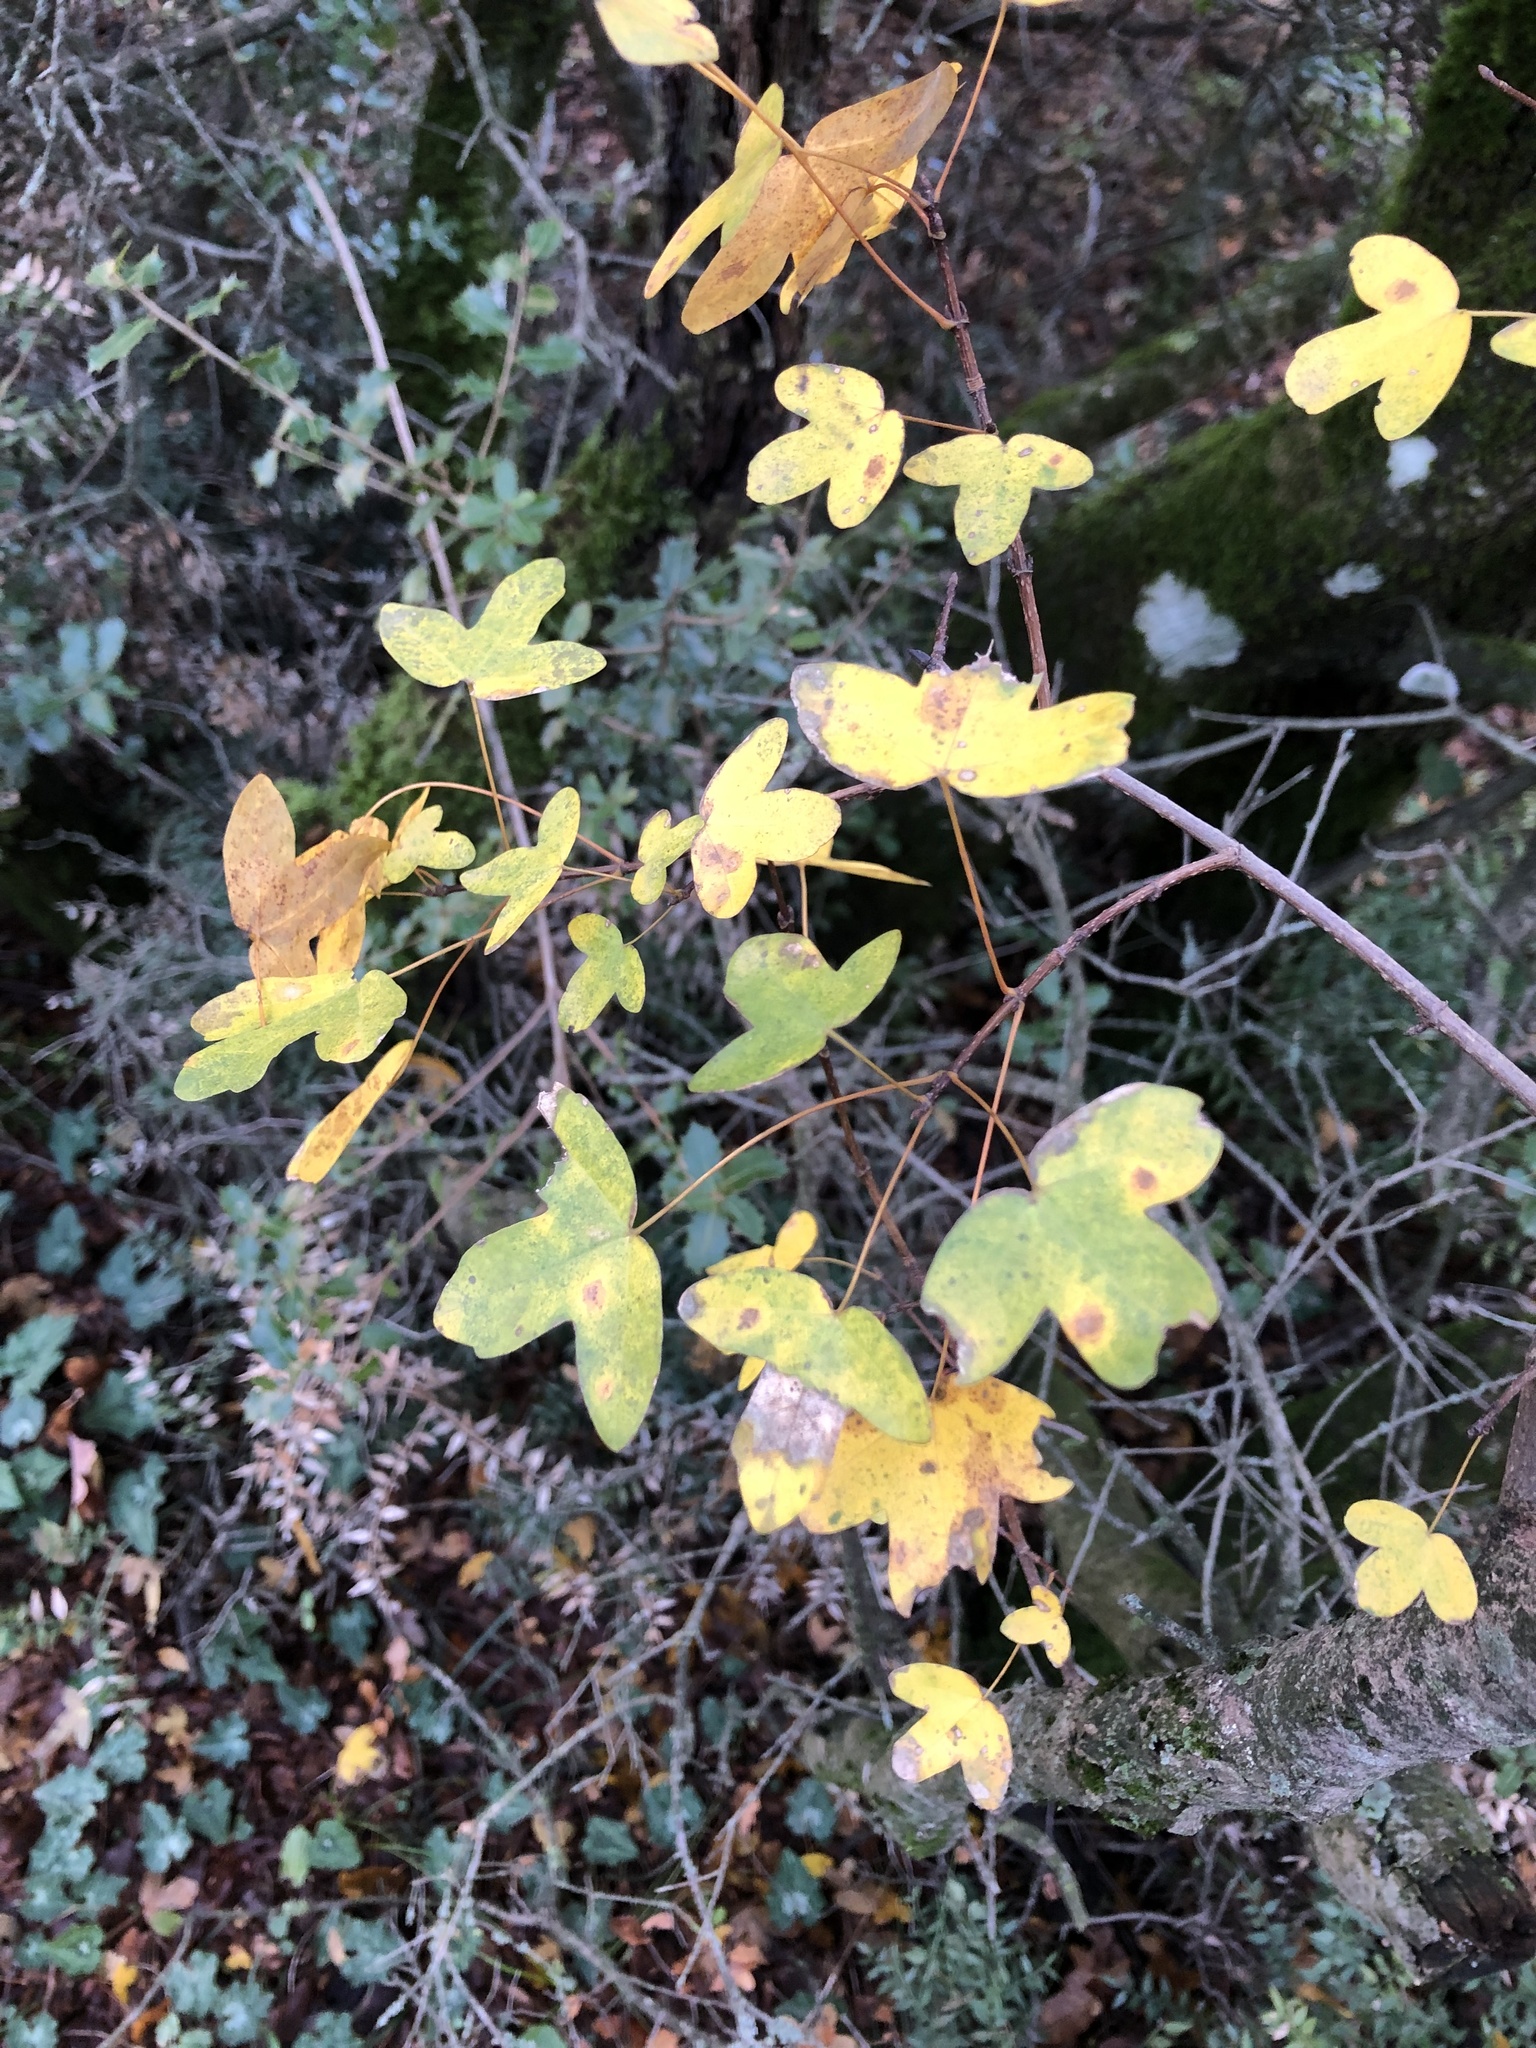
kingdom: Plantae
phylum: Tracheophyta
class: Magnoliopsida
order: Sapindales
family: Sapindaceae
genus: Acer
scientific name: Acer monspessulanum
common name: Montpellier maple
